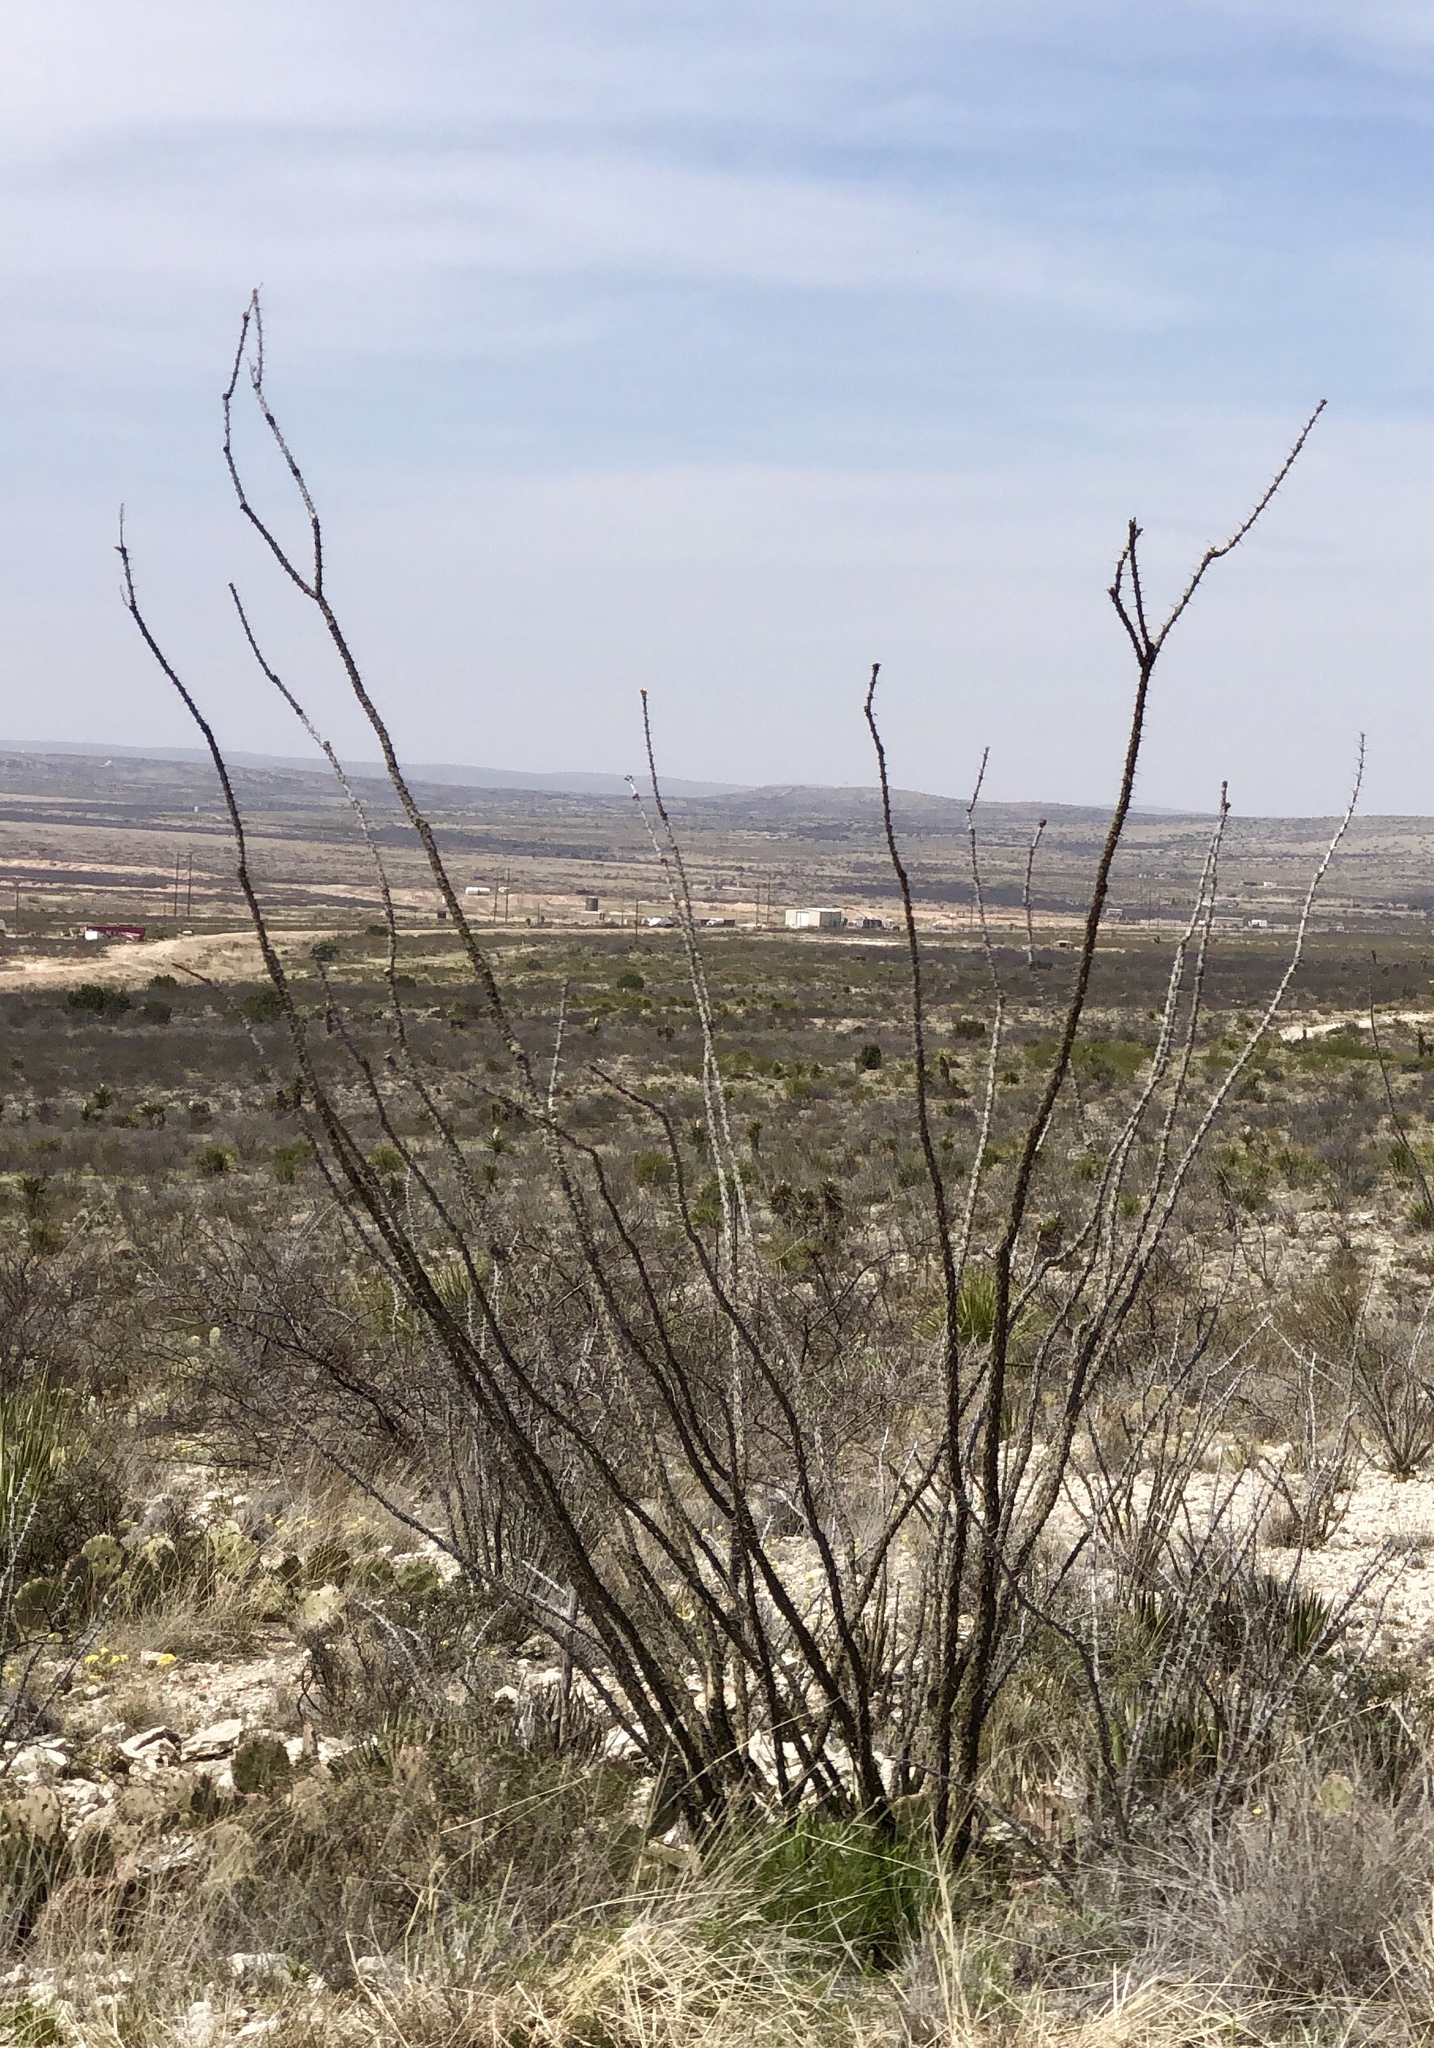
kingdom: Plantae
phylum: Tracheophyta
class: Magnoliopsida
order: Ericales
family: Fouquieriaceae
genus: Fouquieria
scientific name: Fouquieria splendens
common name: Vine-cactus
